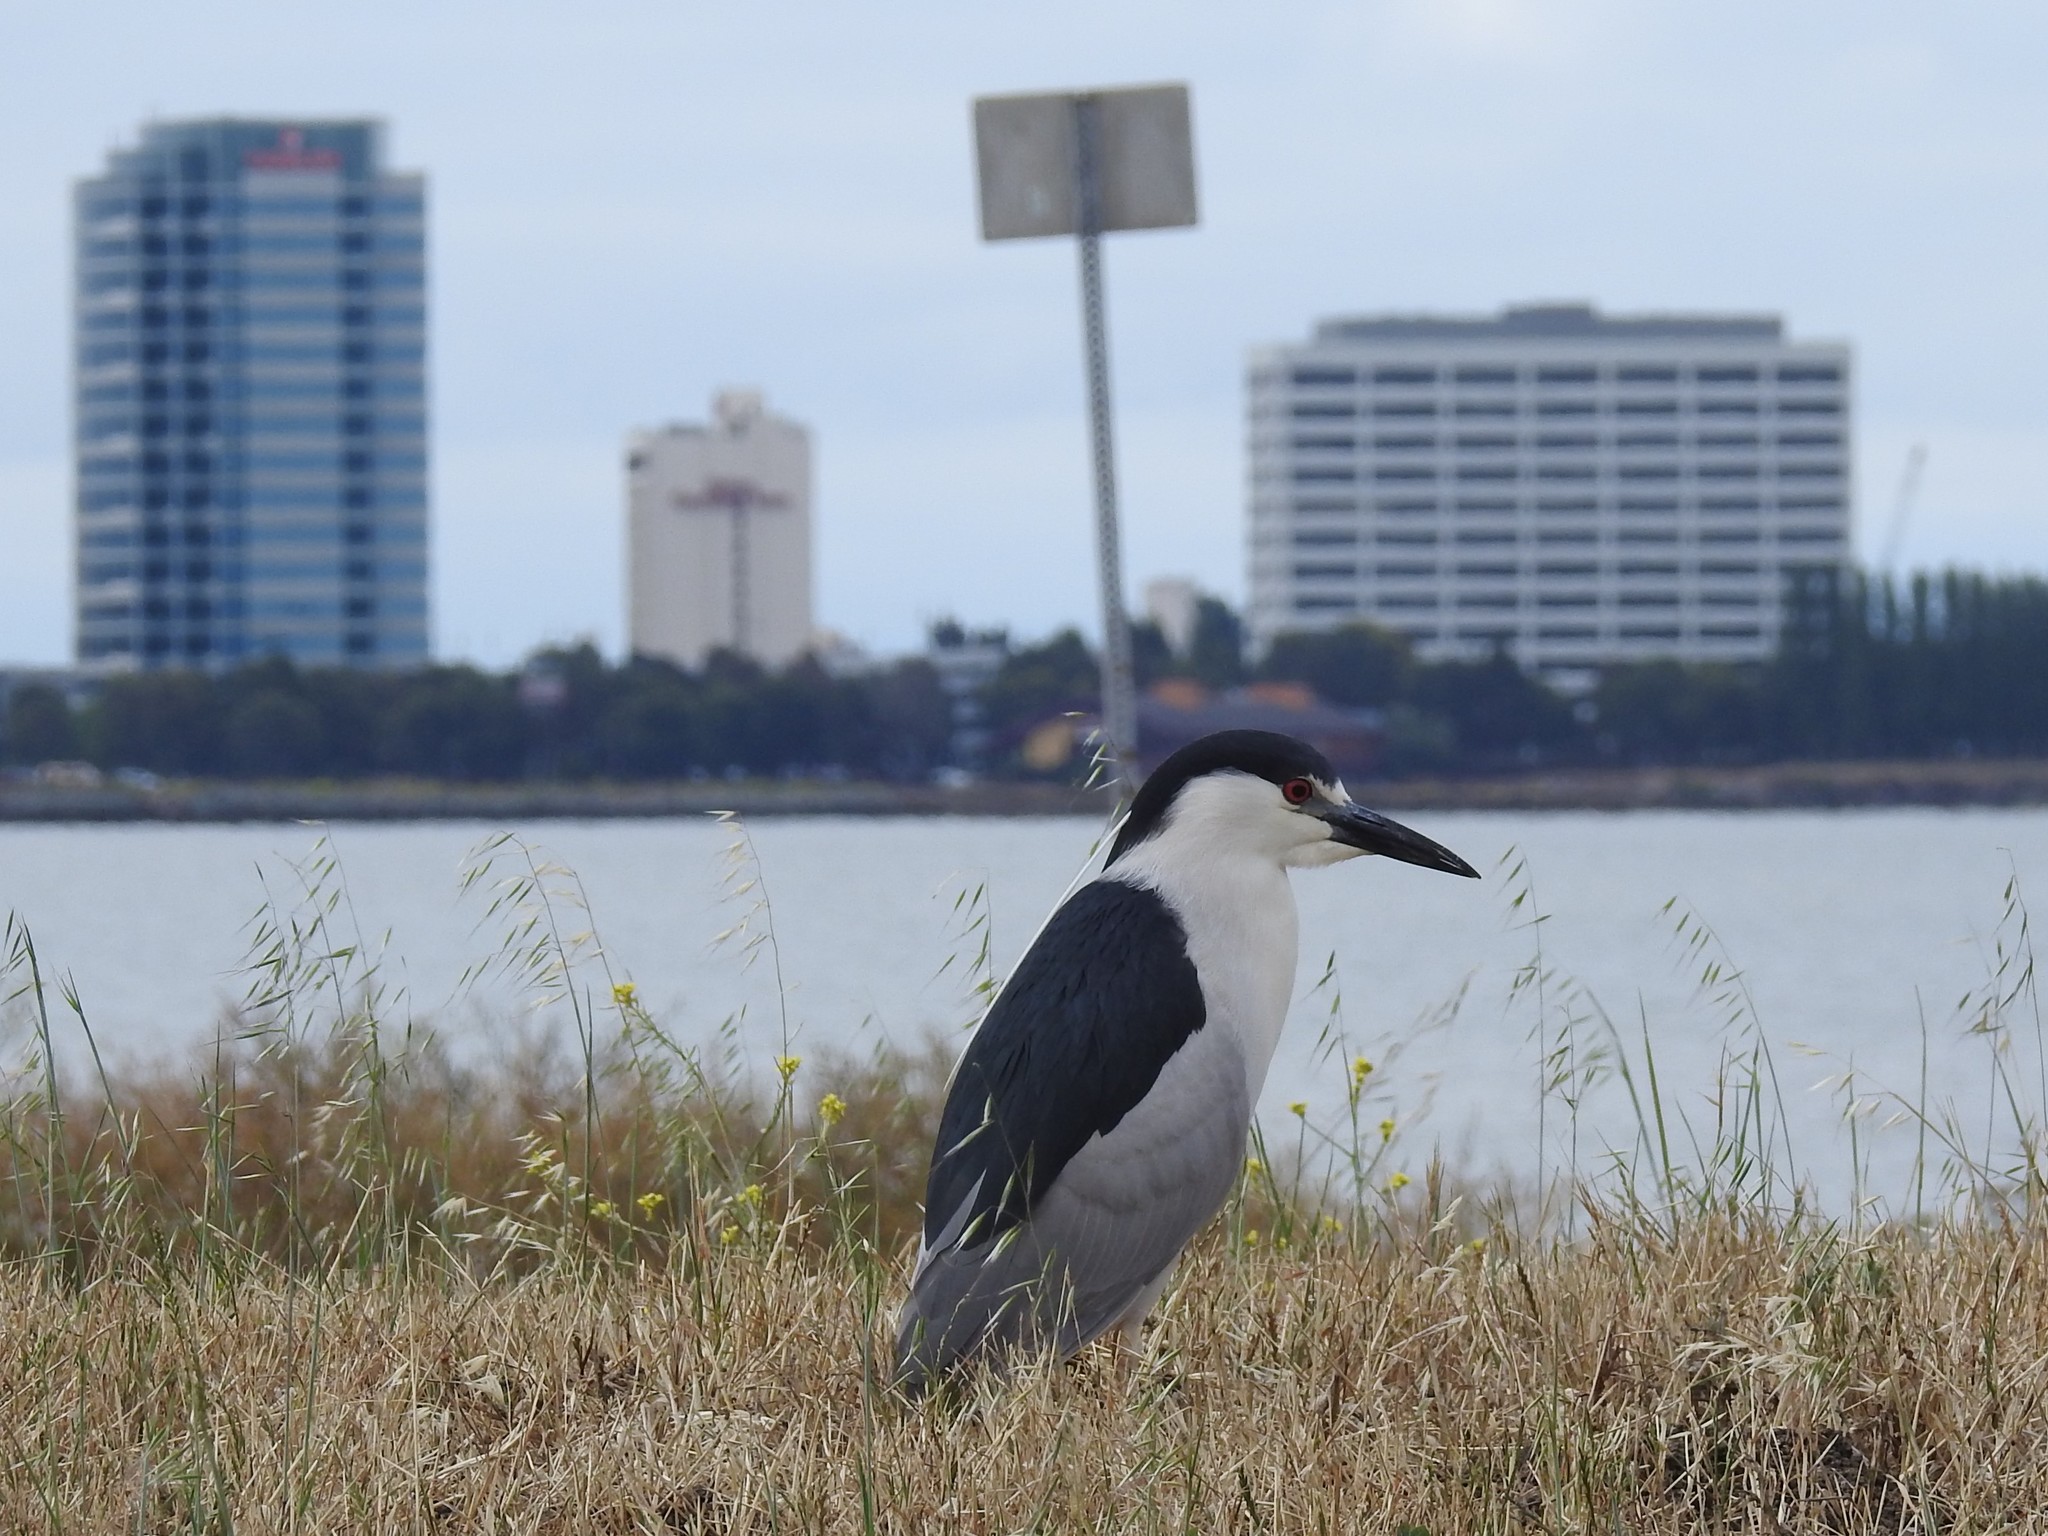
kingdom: Animalia
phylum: Chordata
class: Aves
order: Pelecaniformes
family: Ardeidae
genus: Nycticorax
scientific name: Nycticorax nycticorax
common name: Black-crowned night heron
